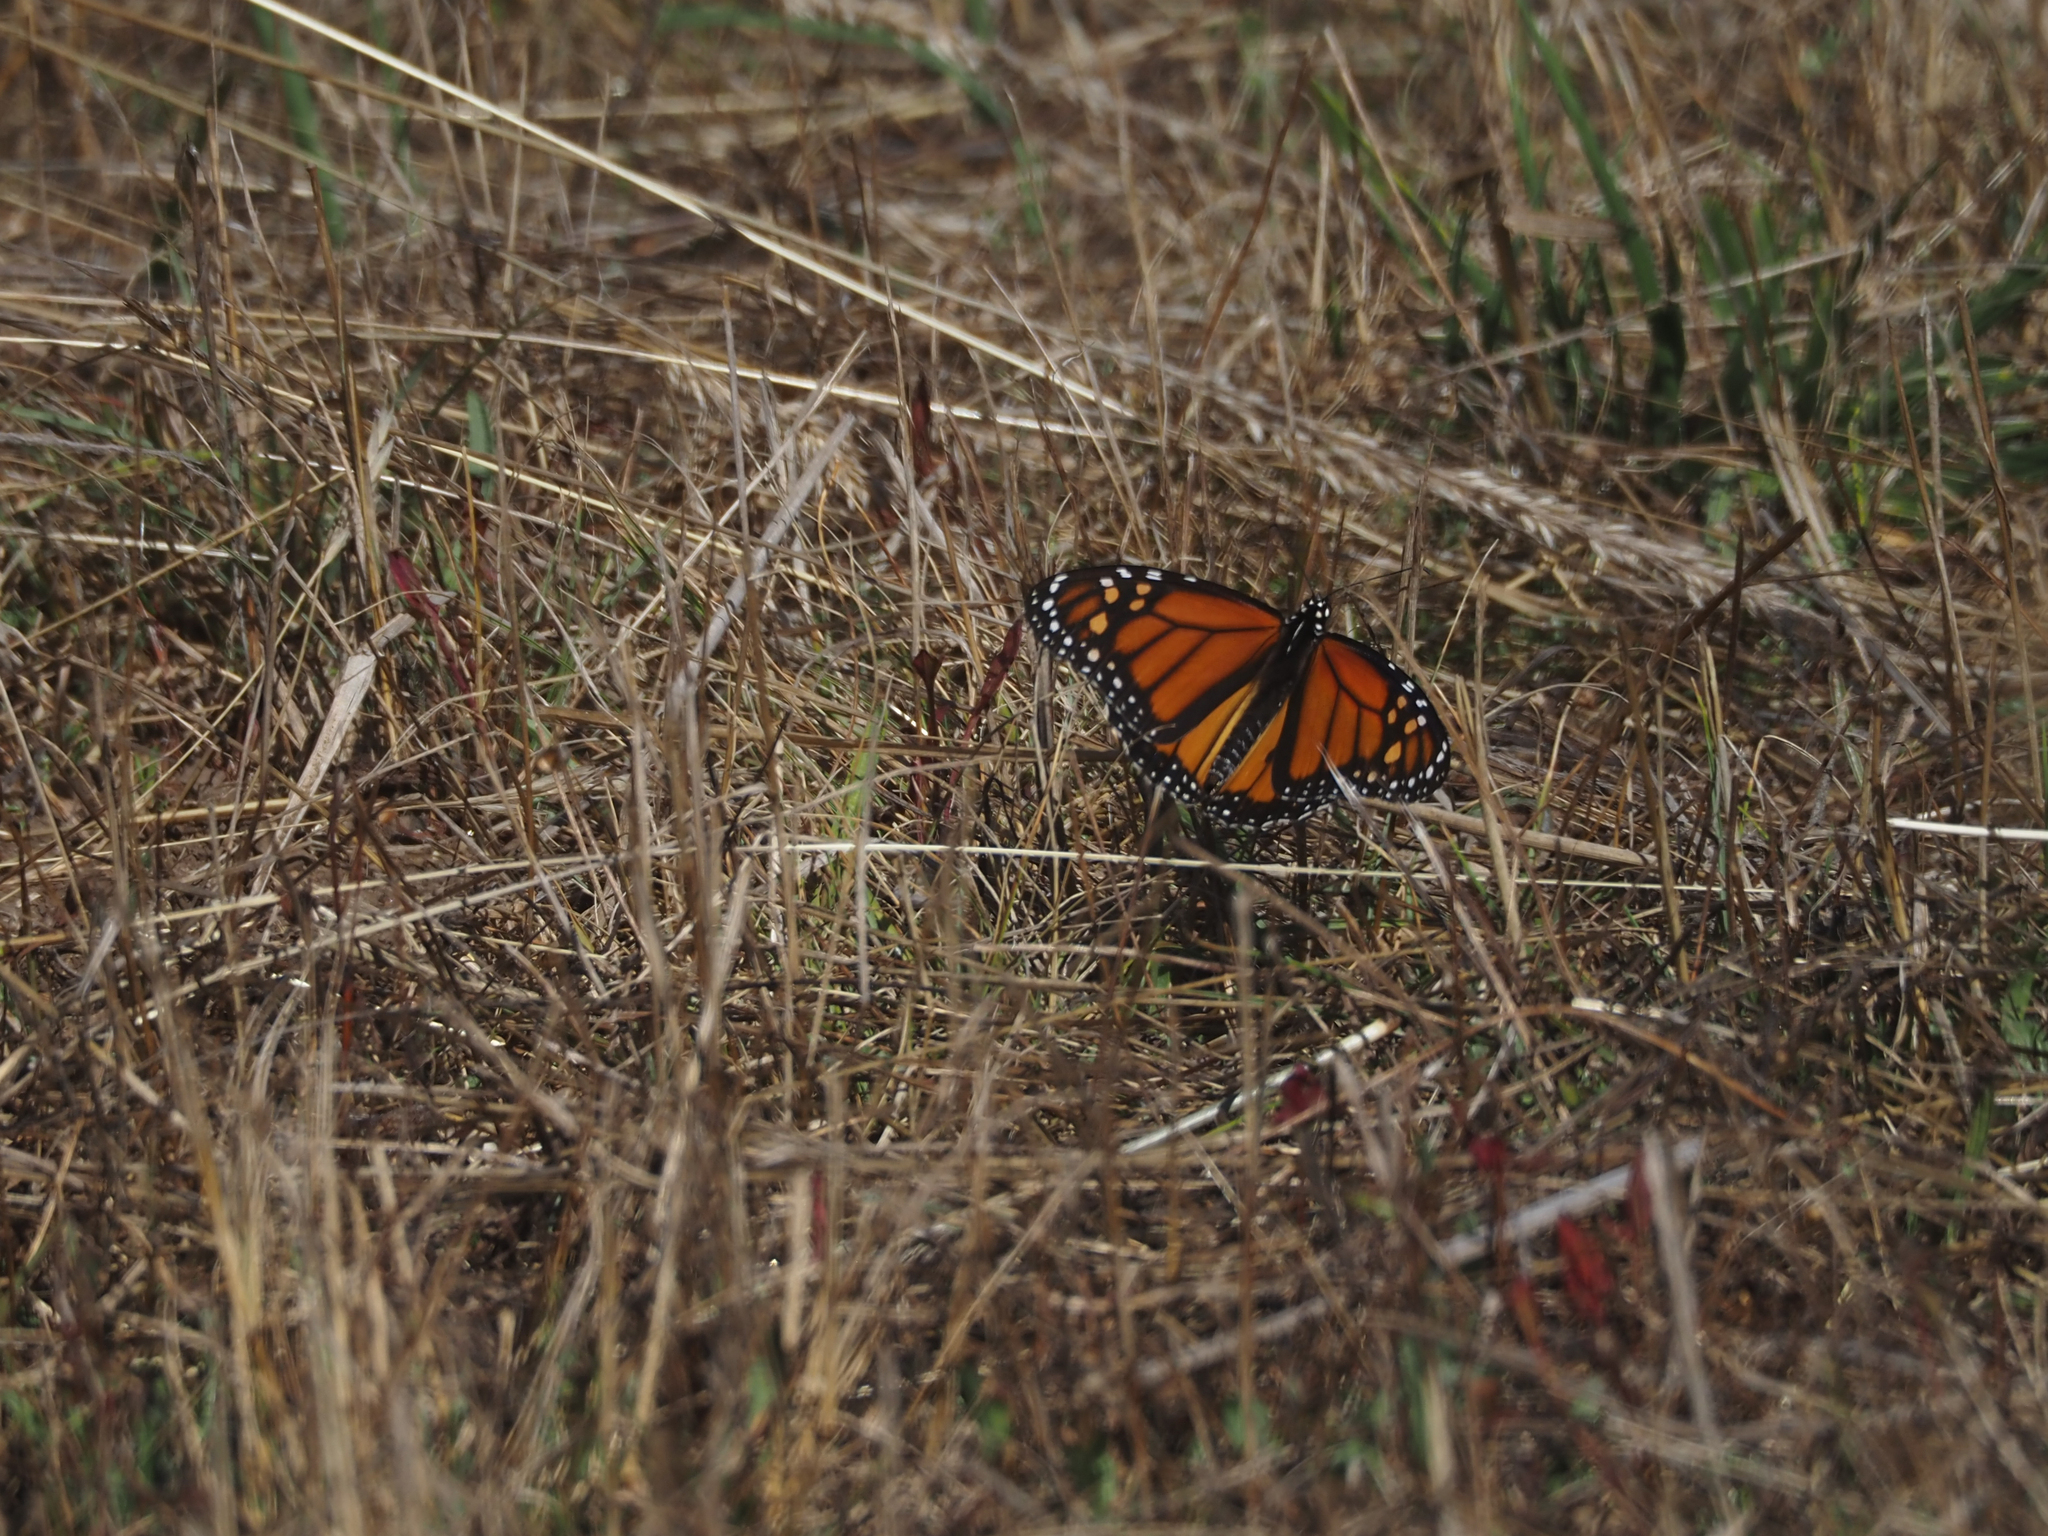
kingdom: Animalia
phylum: Arthropoda
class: Insecta
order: Lepidoptera
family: Nymphalidae
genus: Danaus
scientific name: Danaus plexippus
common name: Monarch
